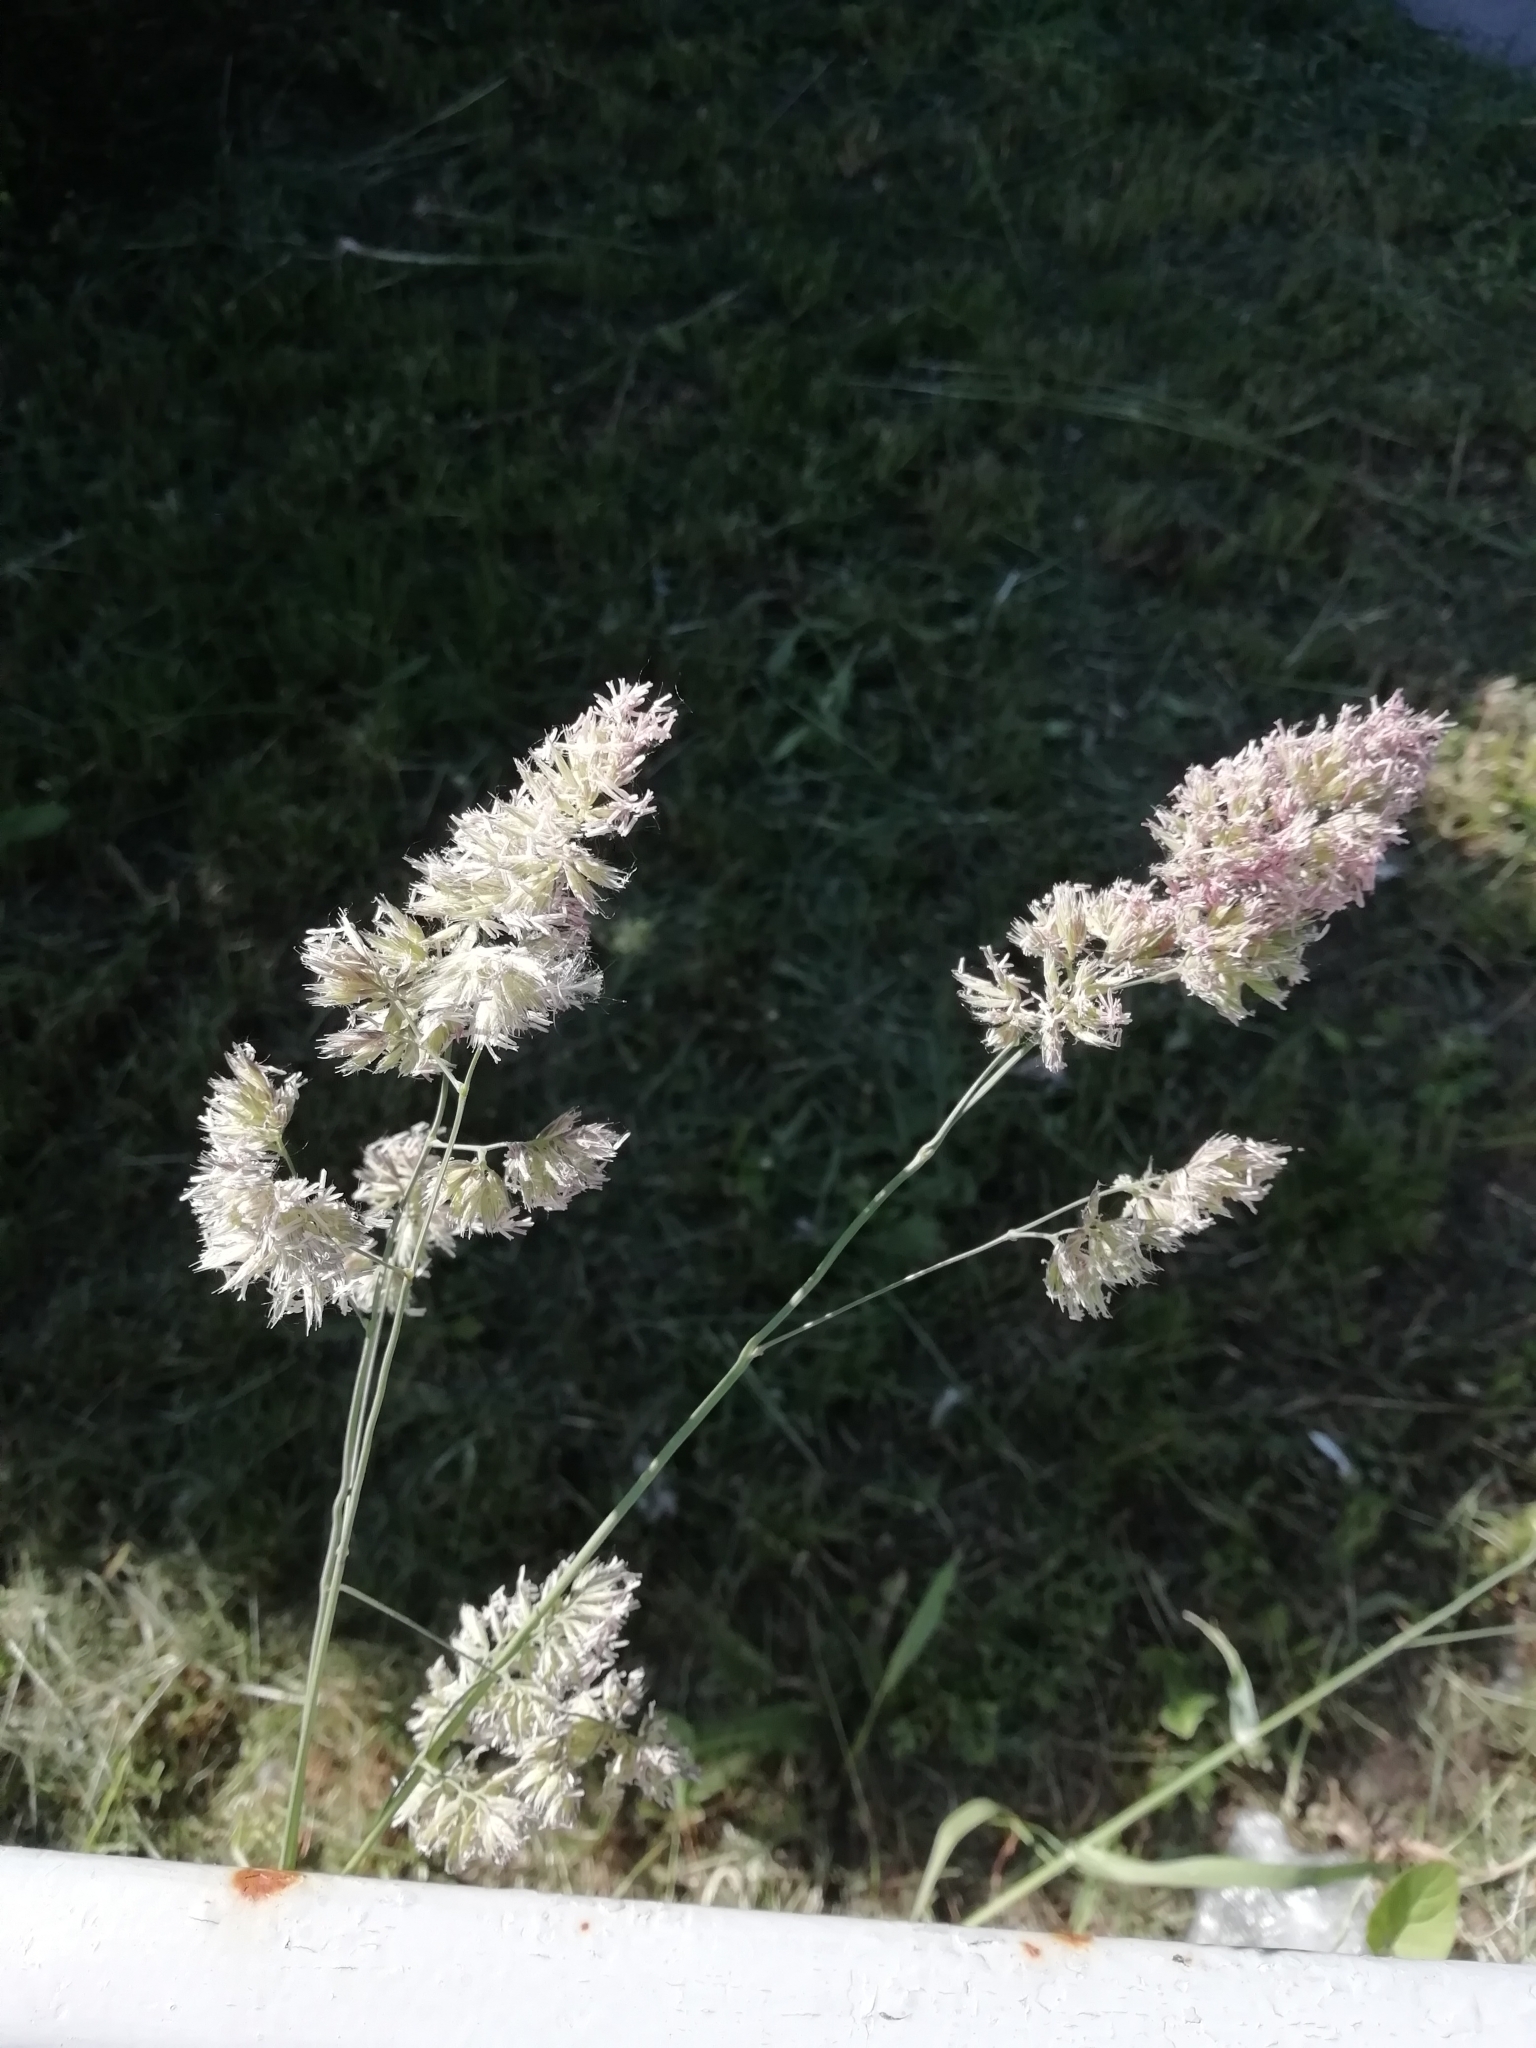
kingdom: Plantae
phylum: Tracheophyta
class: Liliopsida
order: Poales
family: Poaceae
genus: Dactylis
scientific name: Dactylis glomerata
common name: Orchardgrass
